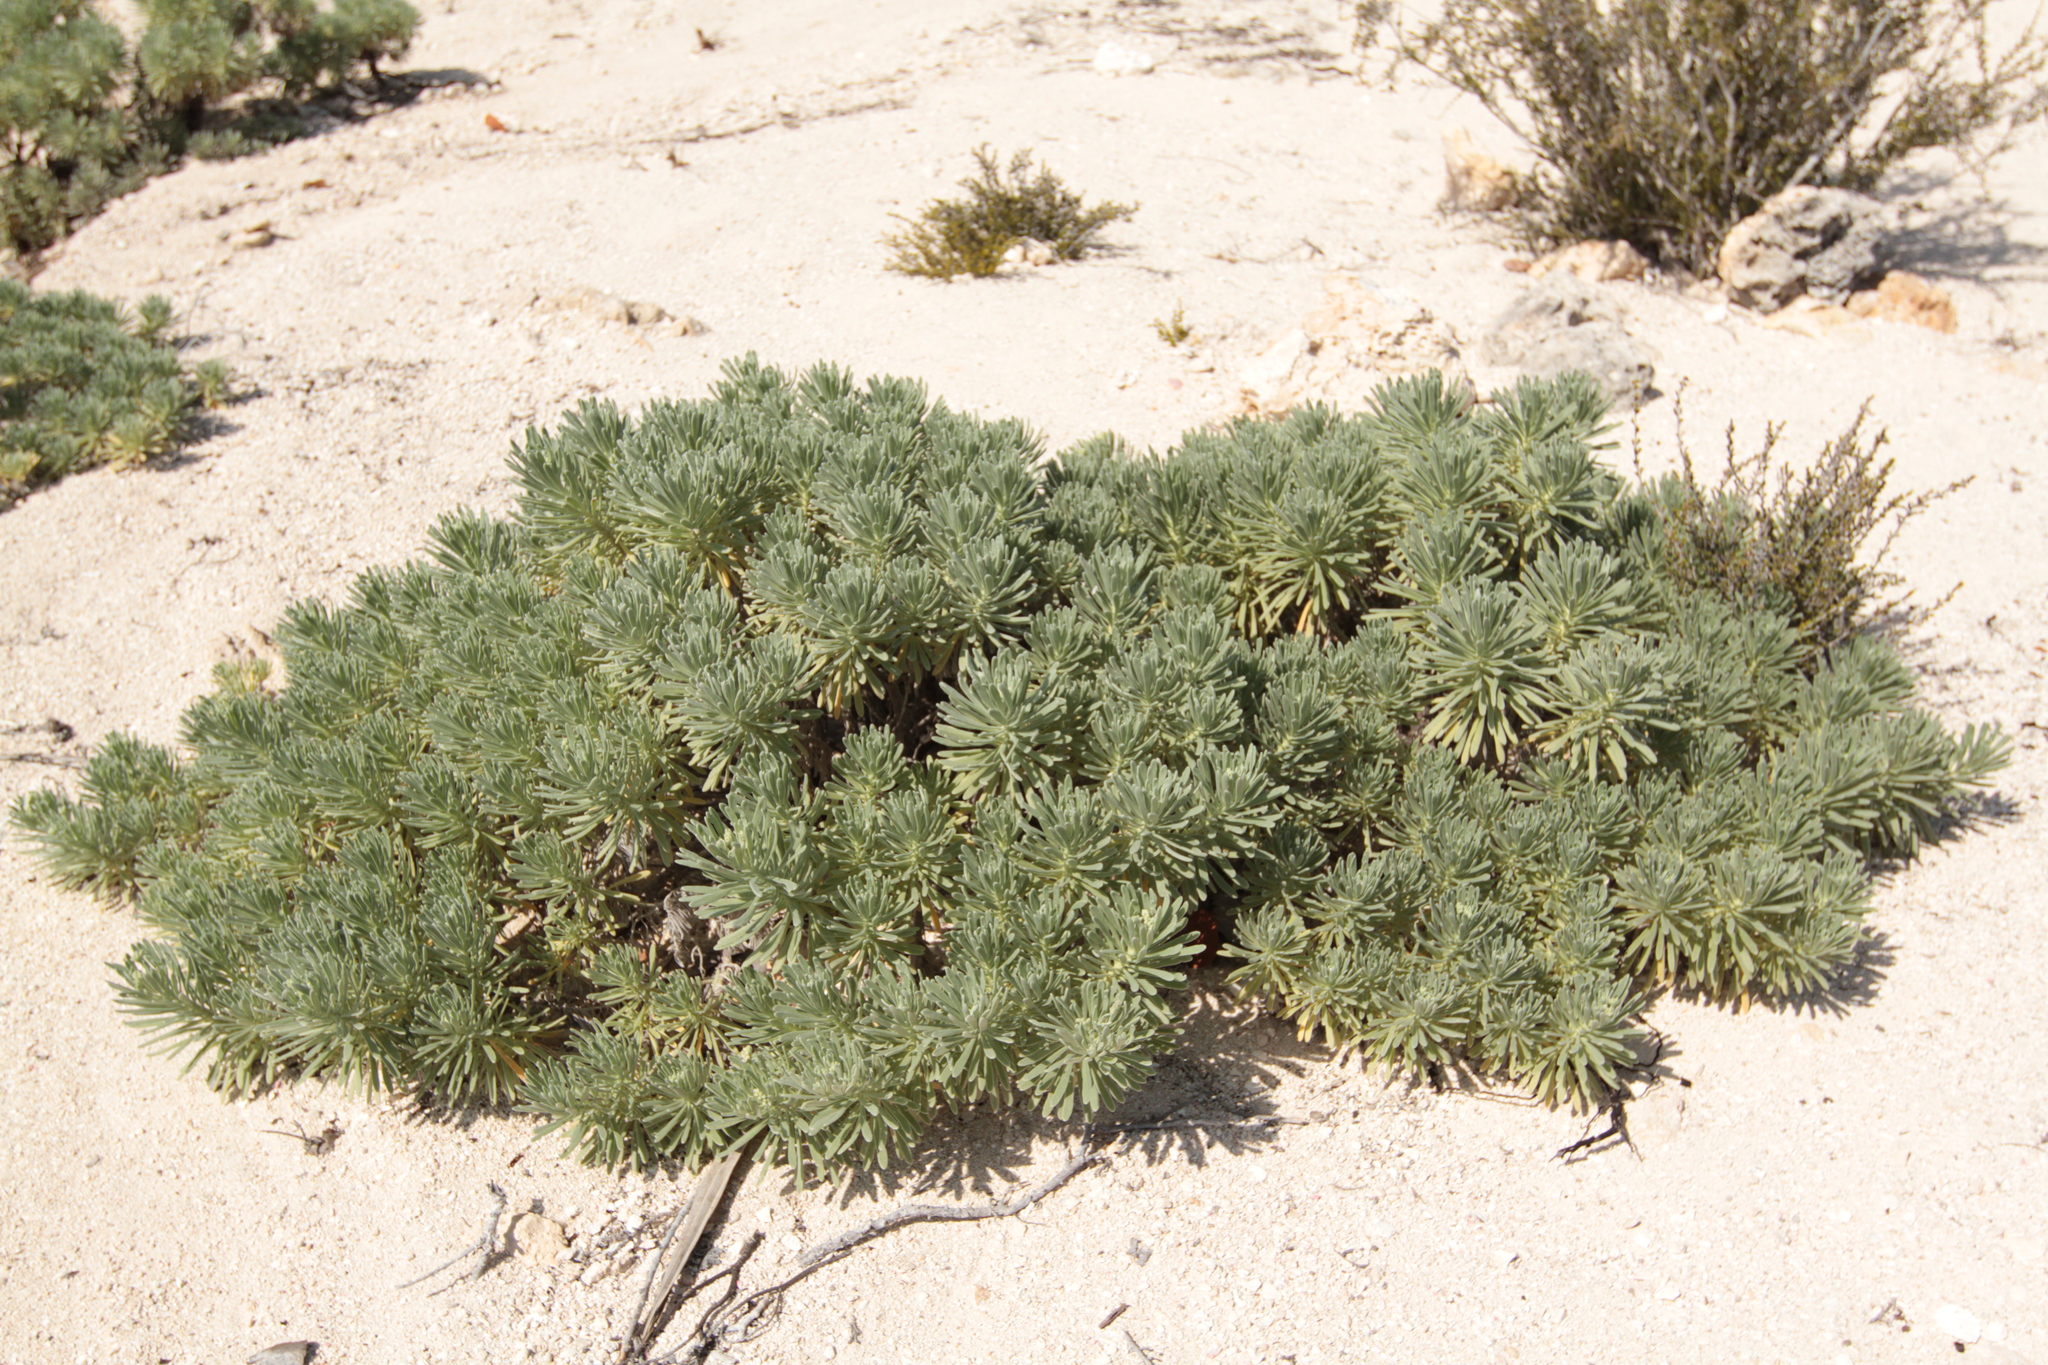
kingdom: Plantae
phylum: Tracheophyta
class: Magnoliopsida
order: Boraginales
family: Heliotropiaceae
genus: Tournefortia
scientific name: Tournefortia gnaphalodes
